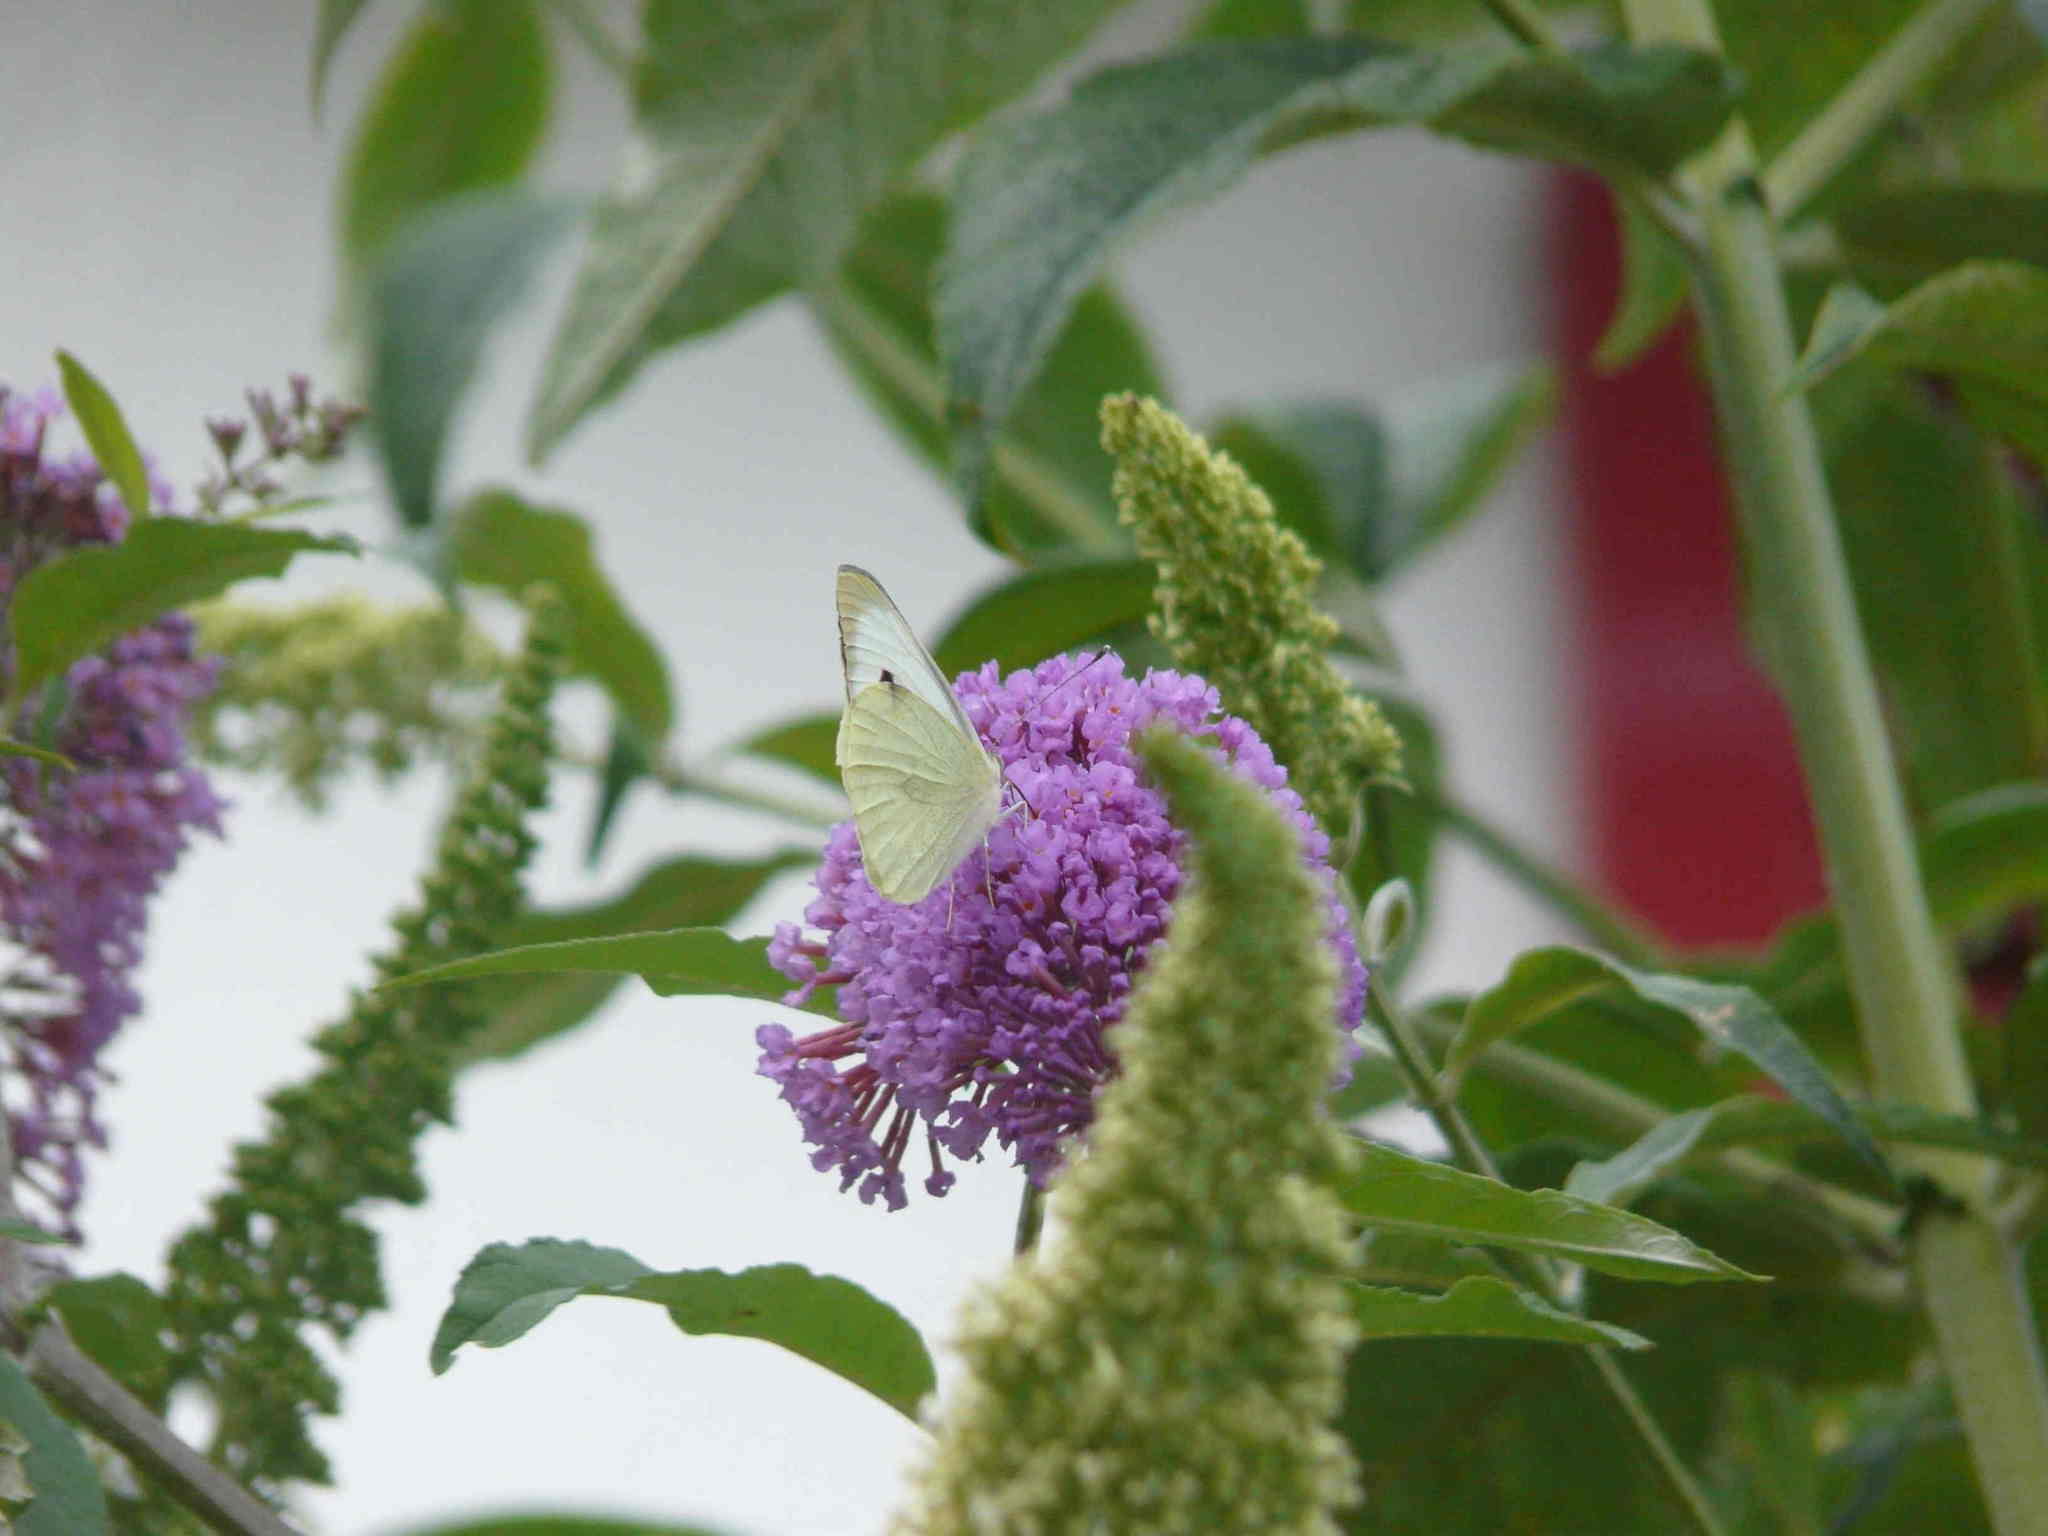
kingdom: Animalia
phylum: Arthropoda
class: Insecta
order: Lepidoptera
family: Pieridae
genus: Pieris
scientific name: Pieris brassicae
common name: Large white
